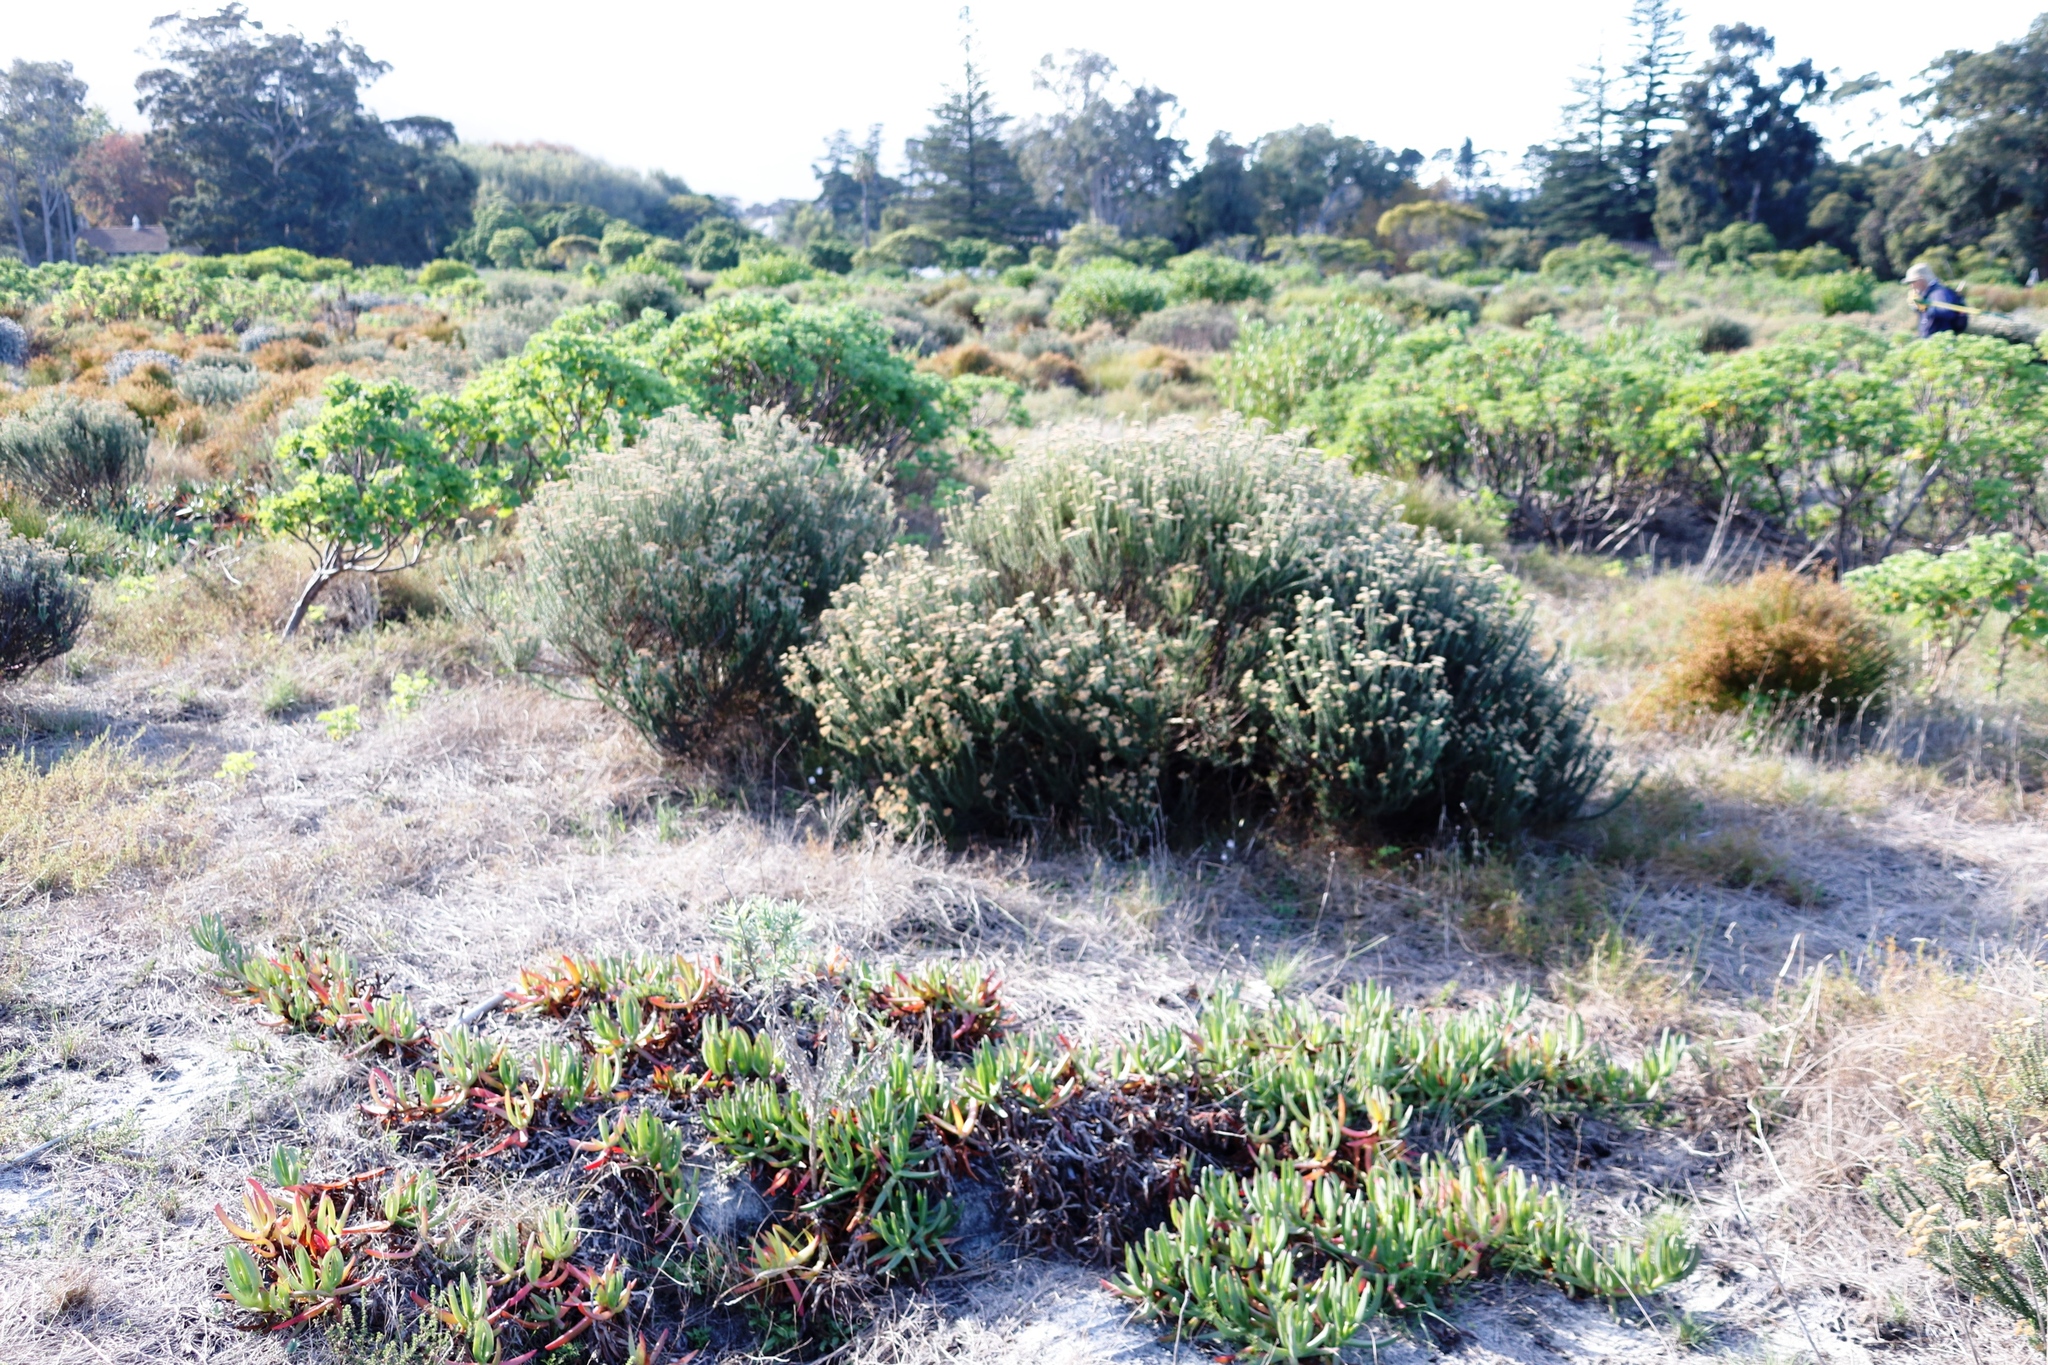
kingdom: Plantae
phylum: Tracheophyta
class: Magnoliopsida
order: Asterales
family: Asteraceae
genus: Metalasia
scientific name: Metalasia densa
